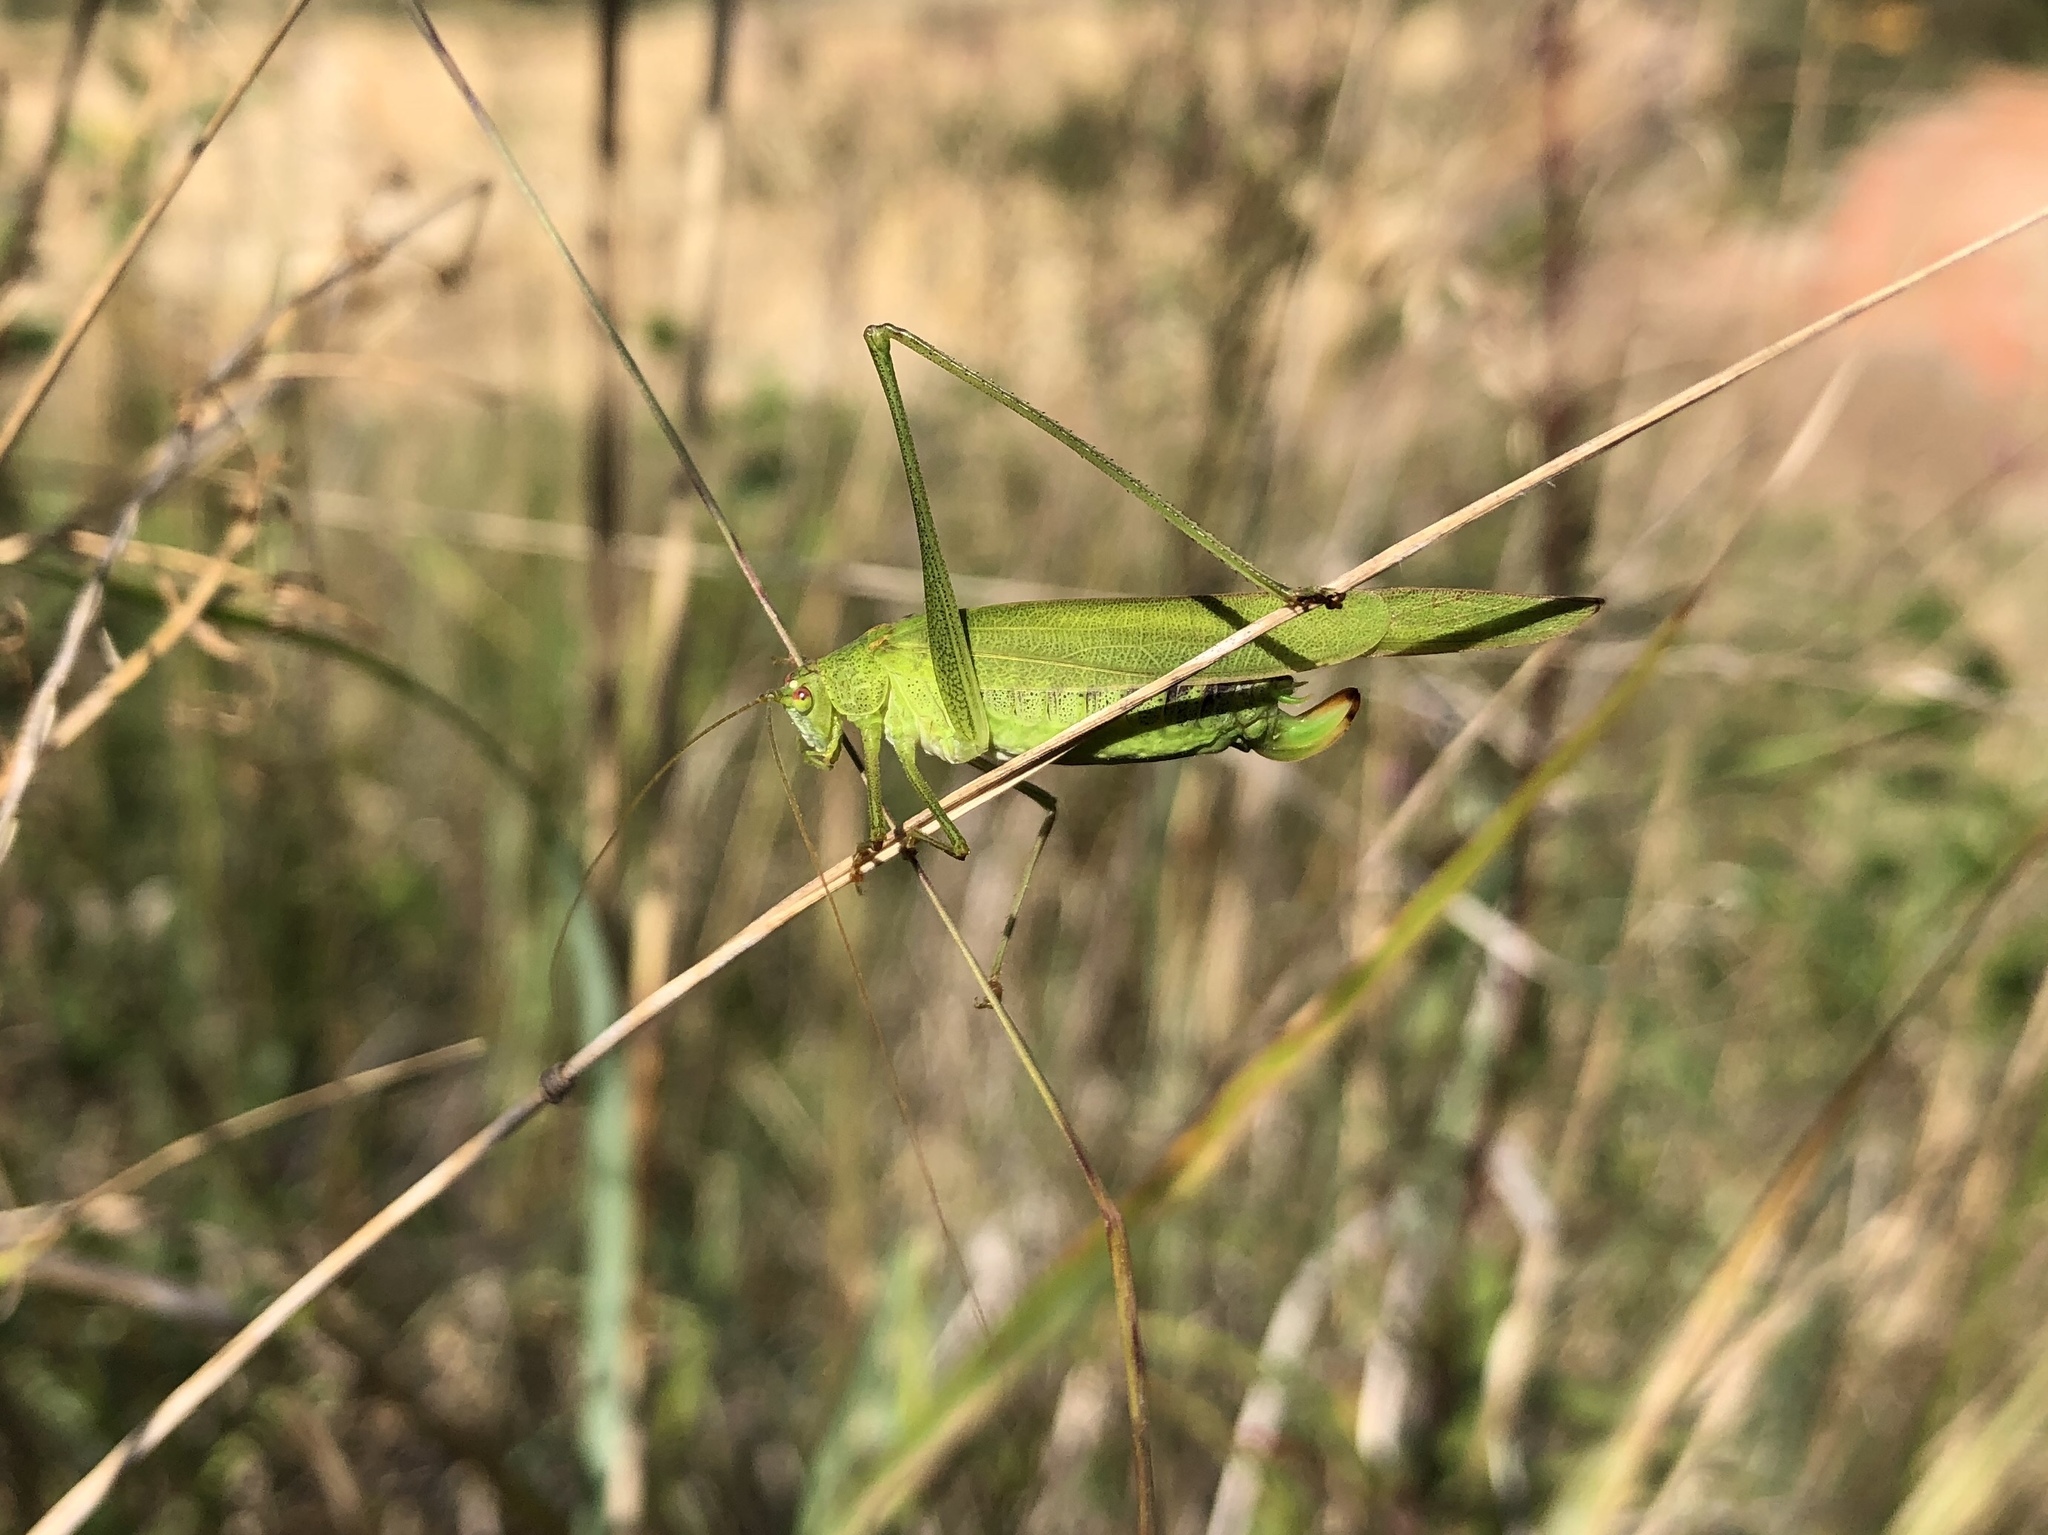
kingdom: Animalia
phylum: Arthropoda
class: Insecta
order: Orthoptera
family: Tettigoniidae
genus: Phaneroptera
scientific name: Phaneroptera falcata
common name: Sickle-bearing bush-cricket
